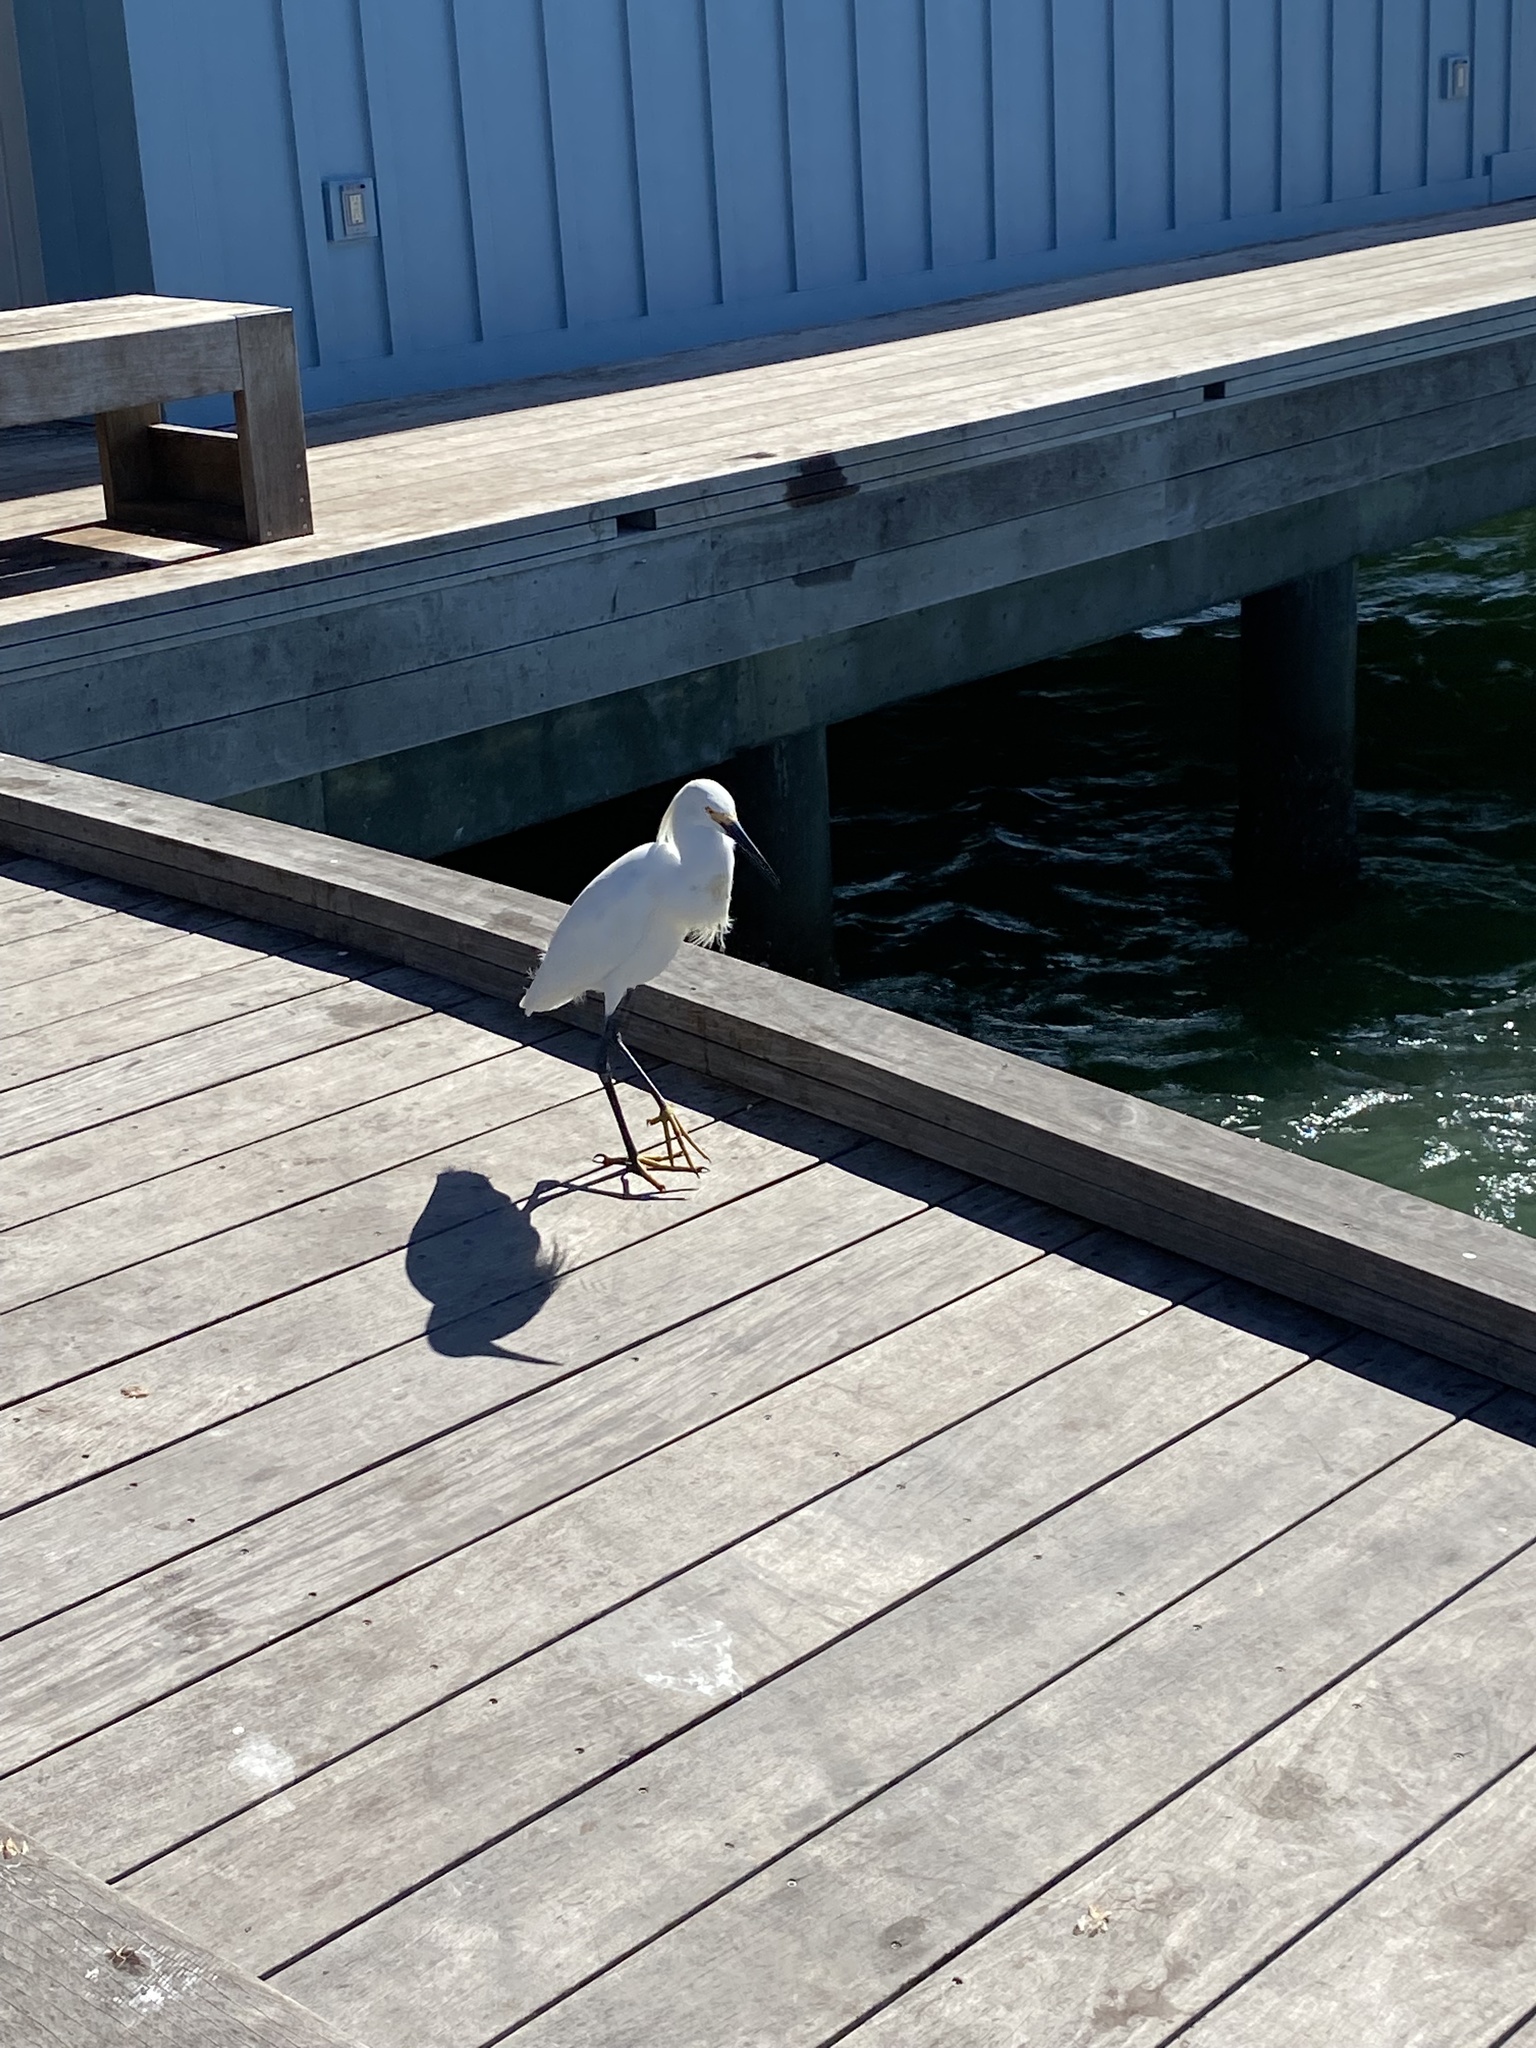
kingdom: Animalia
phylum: Chordata
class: Aves
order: Pelecaniformes
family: Ardeidae
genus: Egretta
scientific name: Egretta thula
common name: Snowy egret
